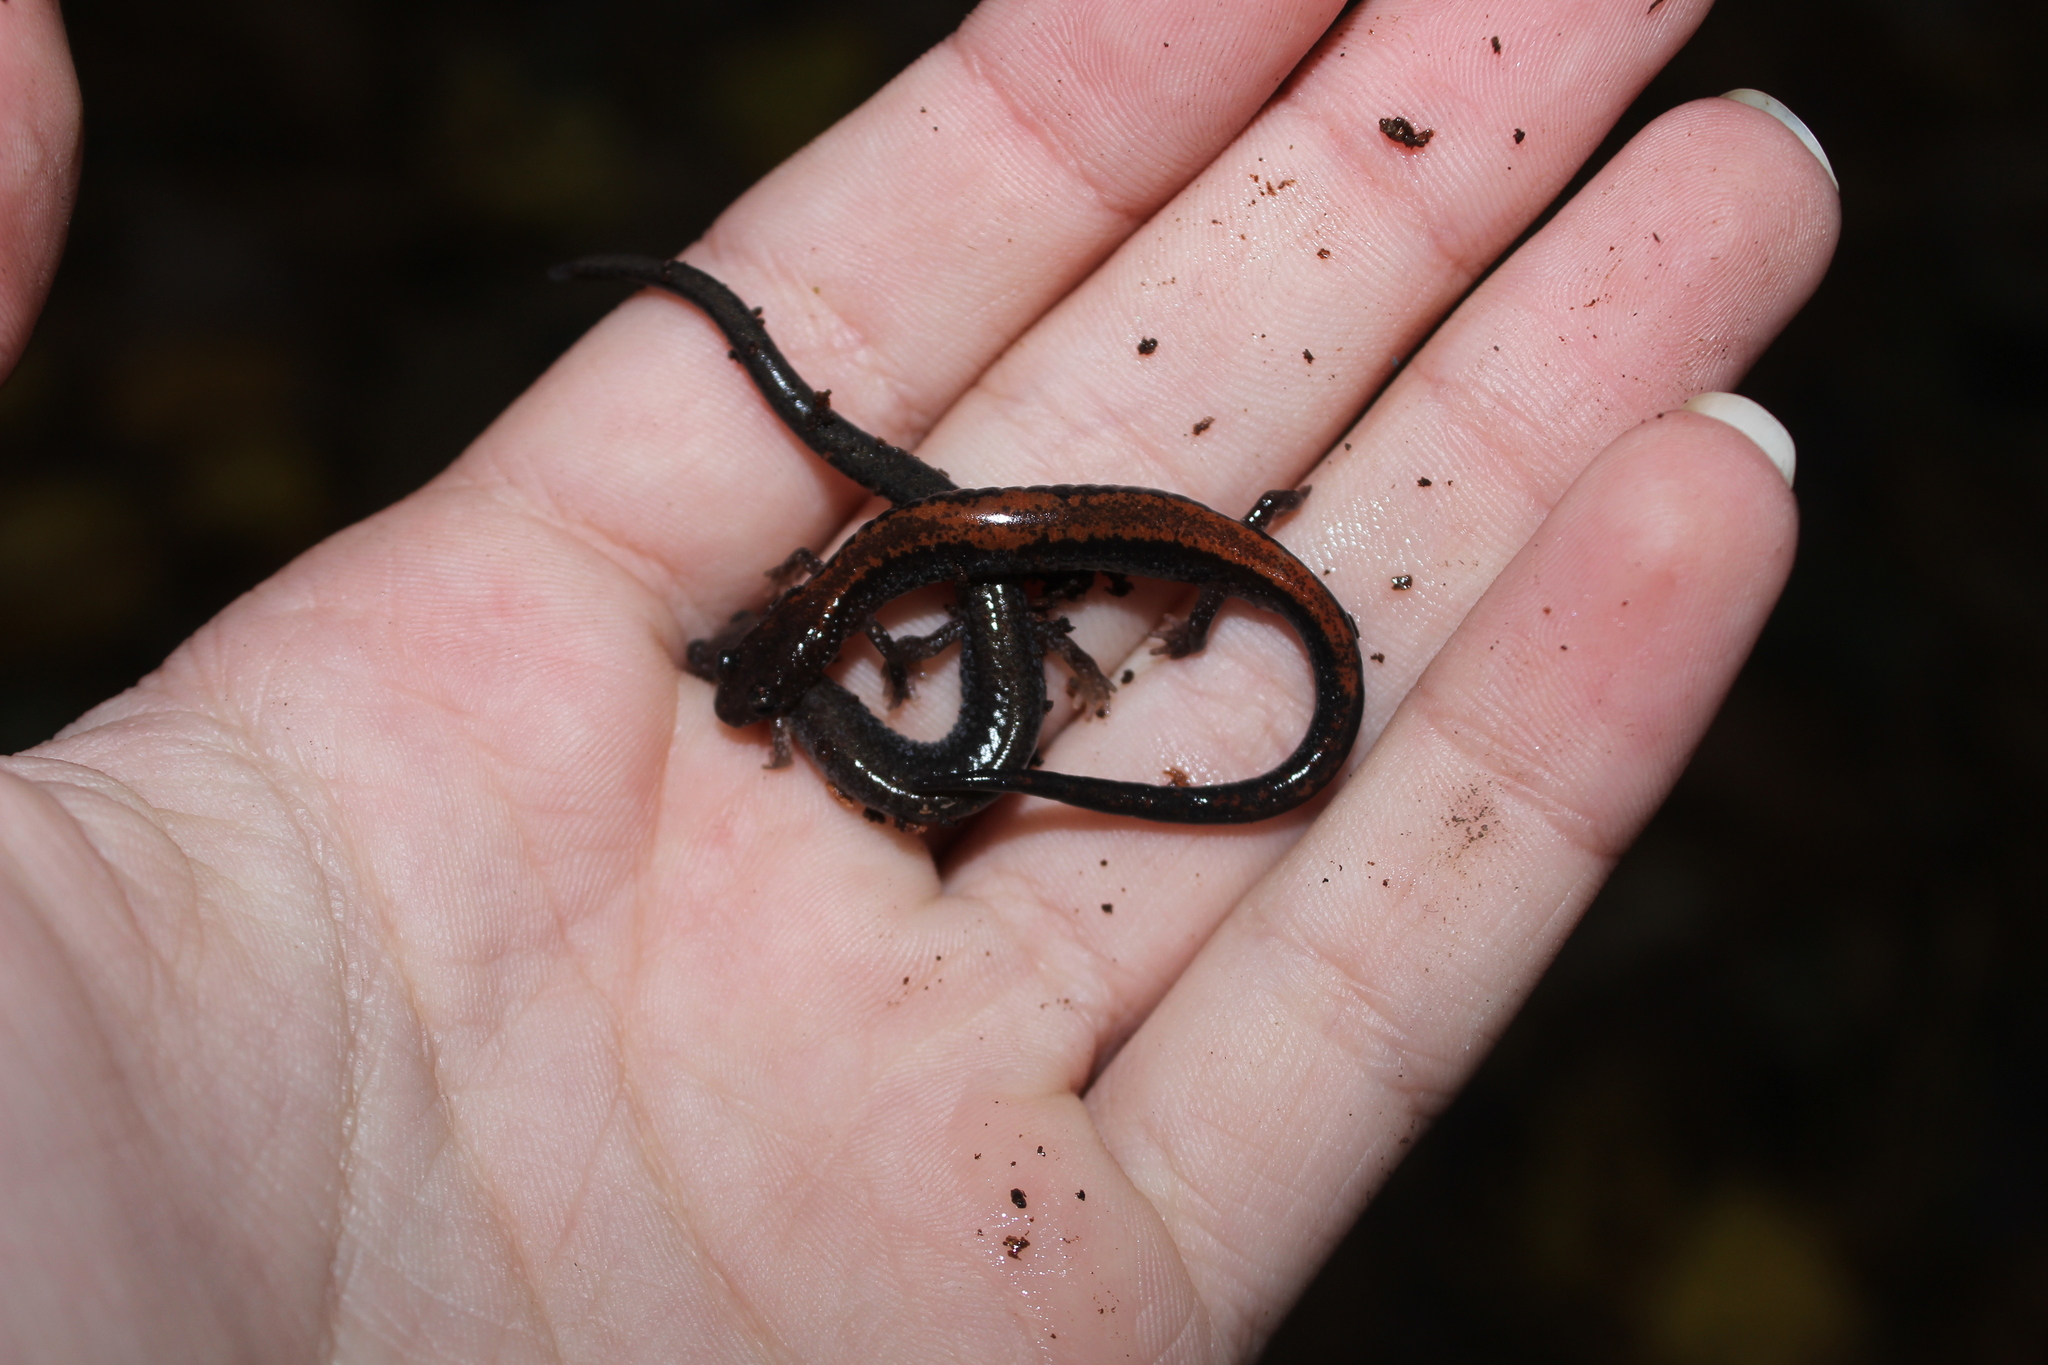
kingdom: Animalia
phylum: Chordata
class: Amphibia
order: Caudata
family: Plethodontidae
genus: Plethodon
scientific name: Plethodon cinereus
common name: Redback salamander
